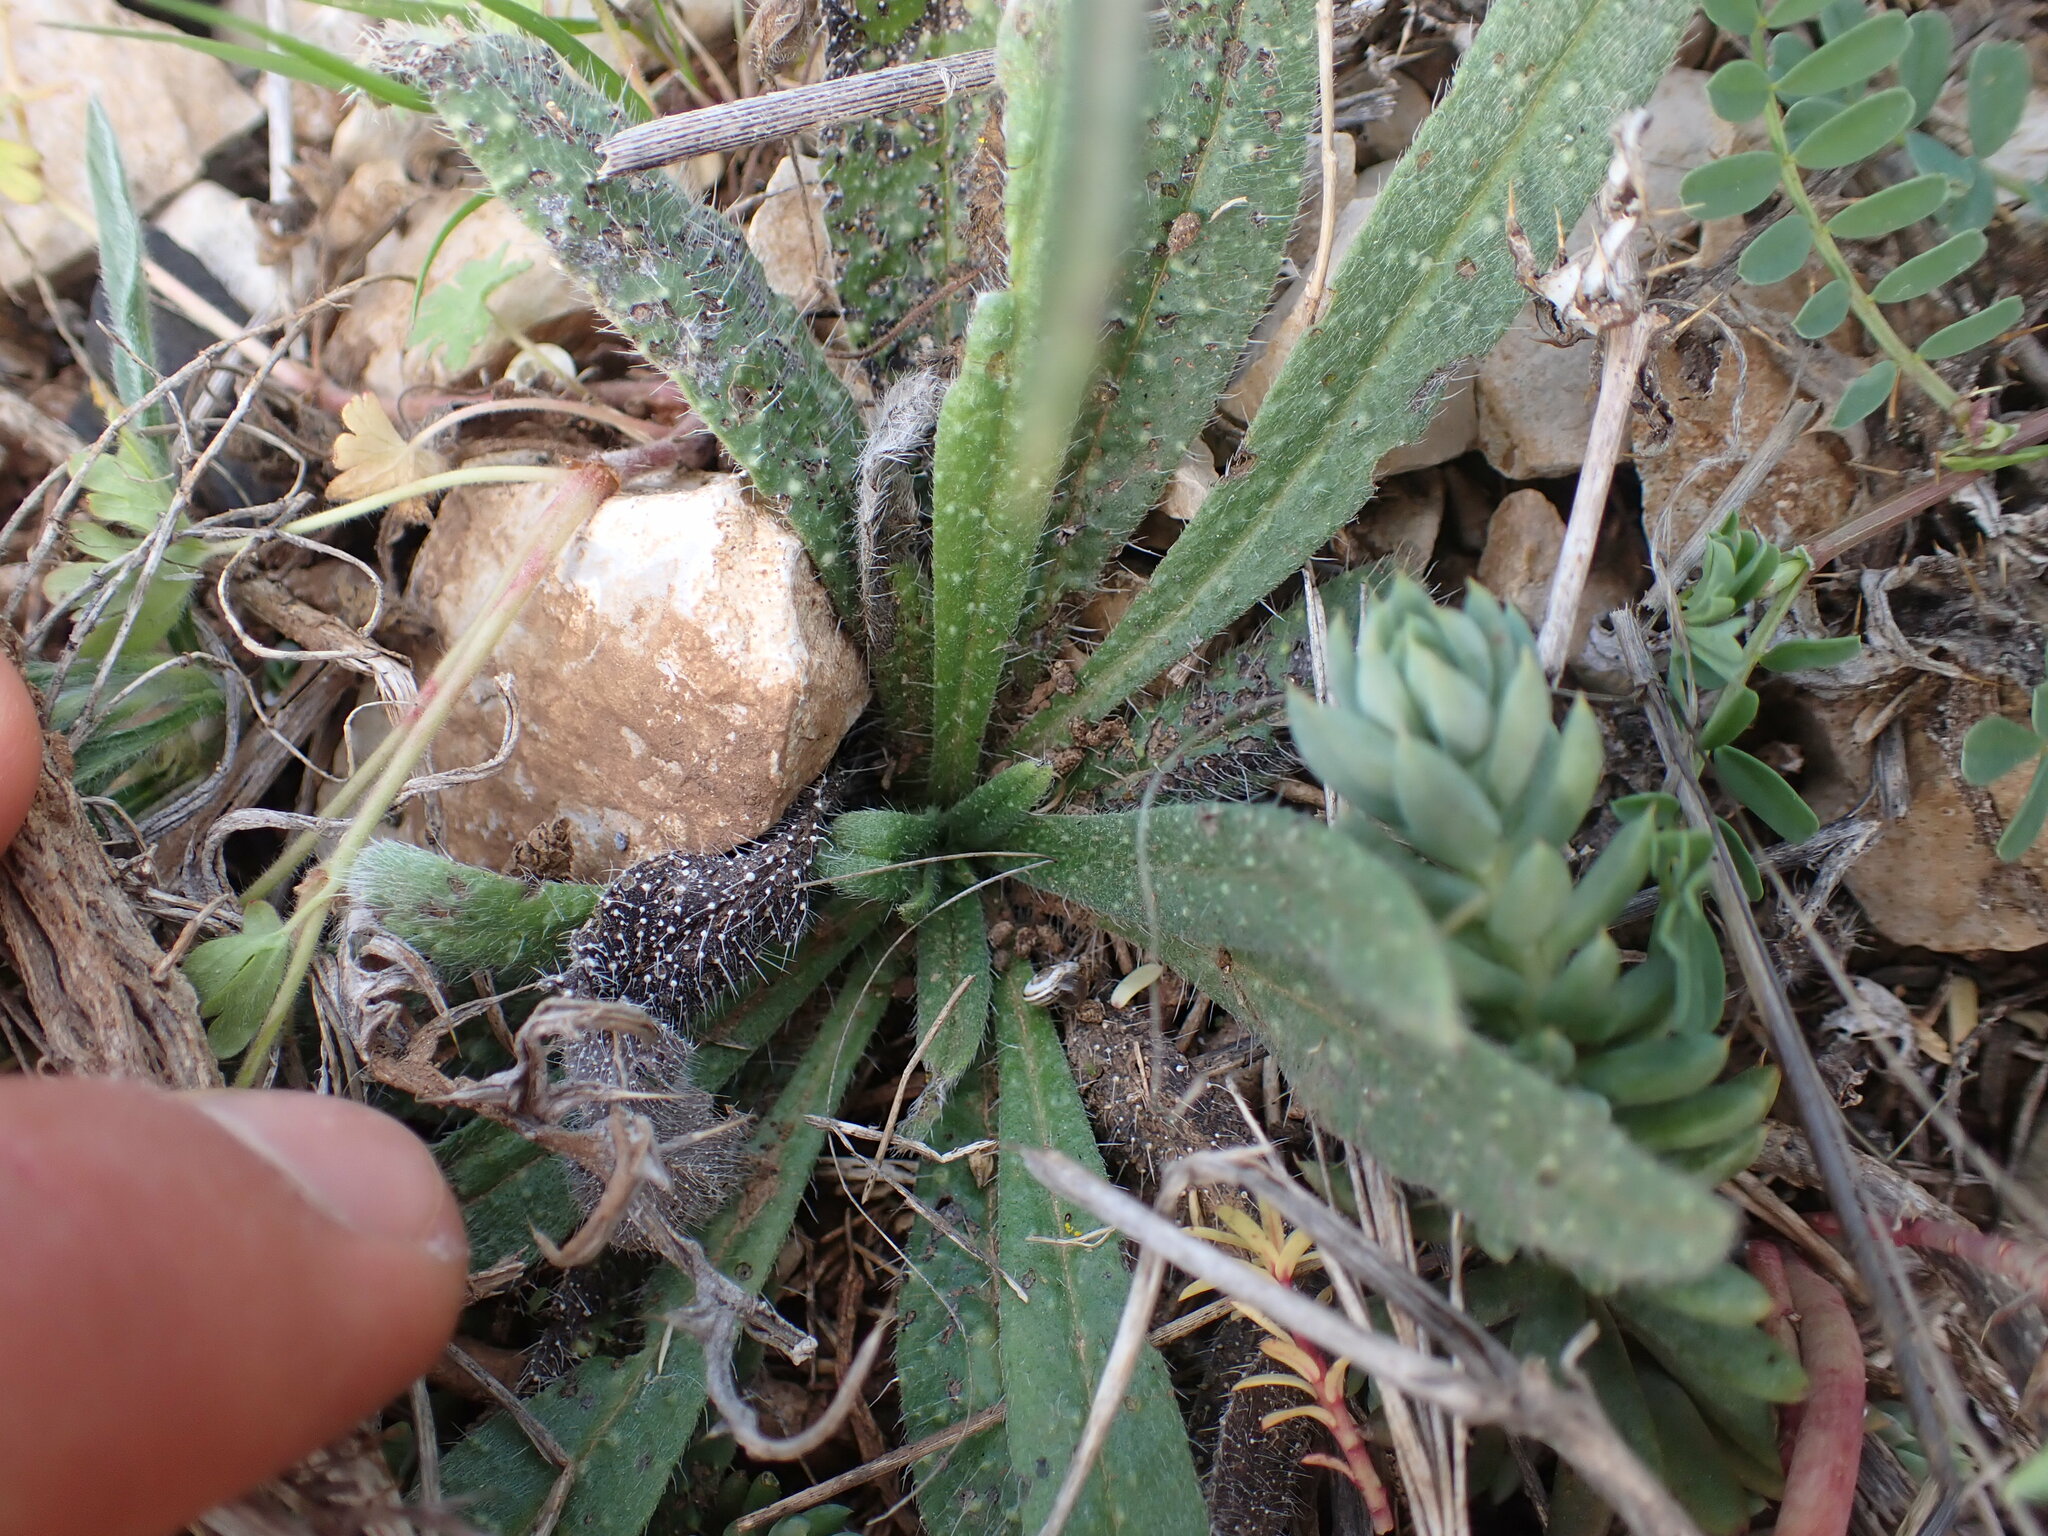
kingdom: Plantae
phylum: Tracheophyta
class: Magnoliopsida
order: Boraginales
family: Boraginaceae
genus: Echium
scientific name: Echium vulgare
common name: Common viper's bugloss
